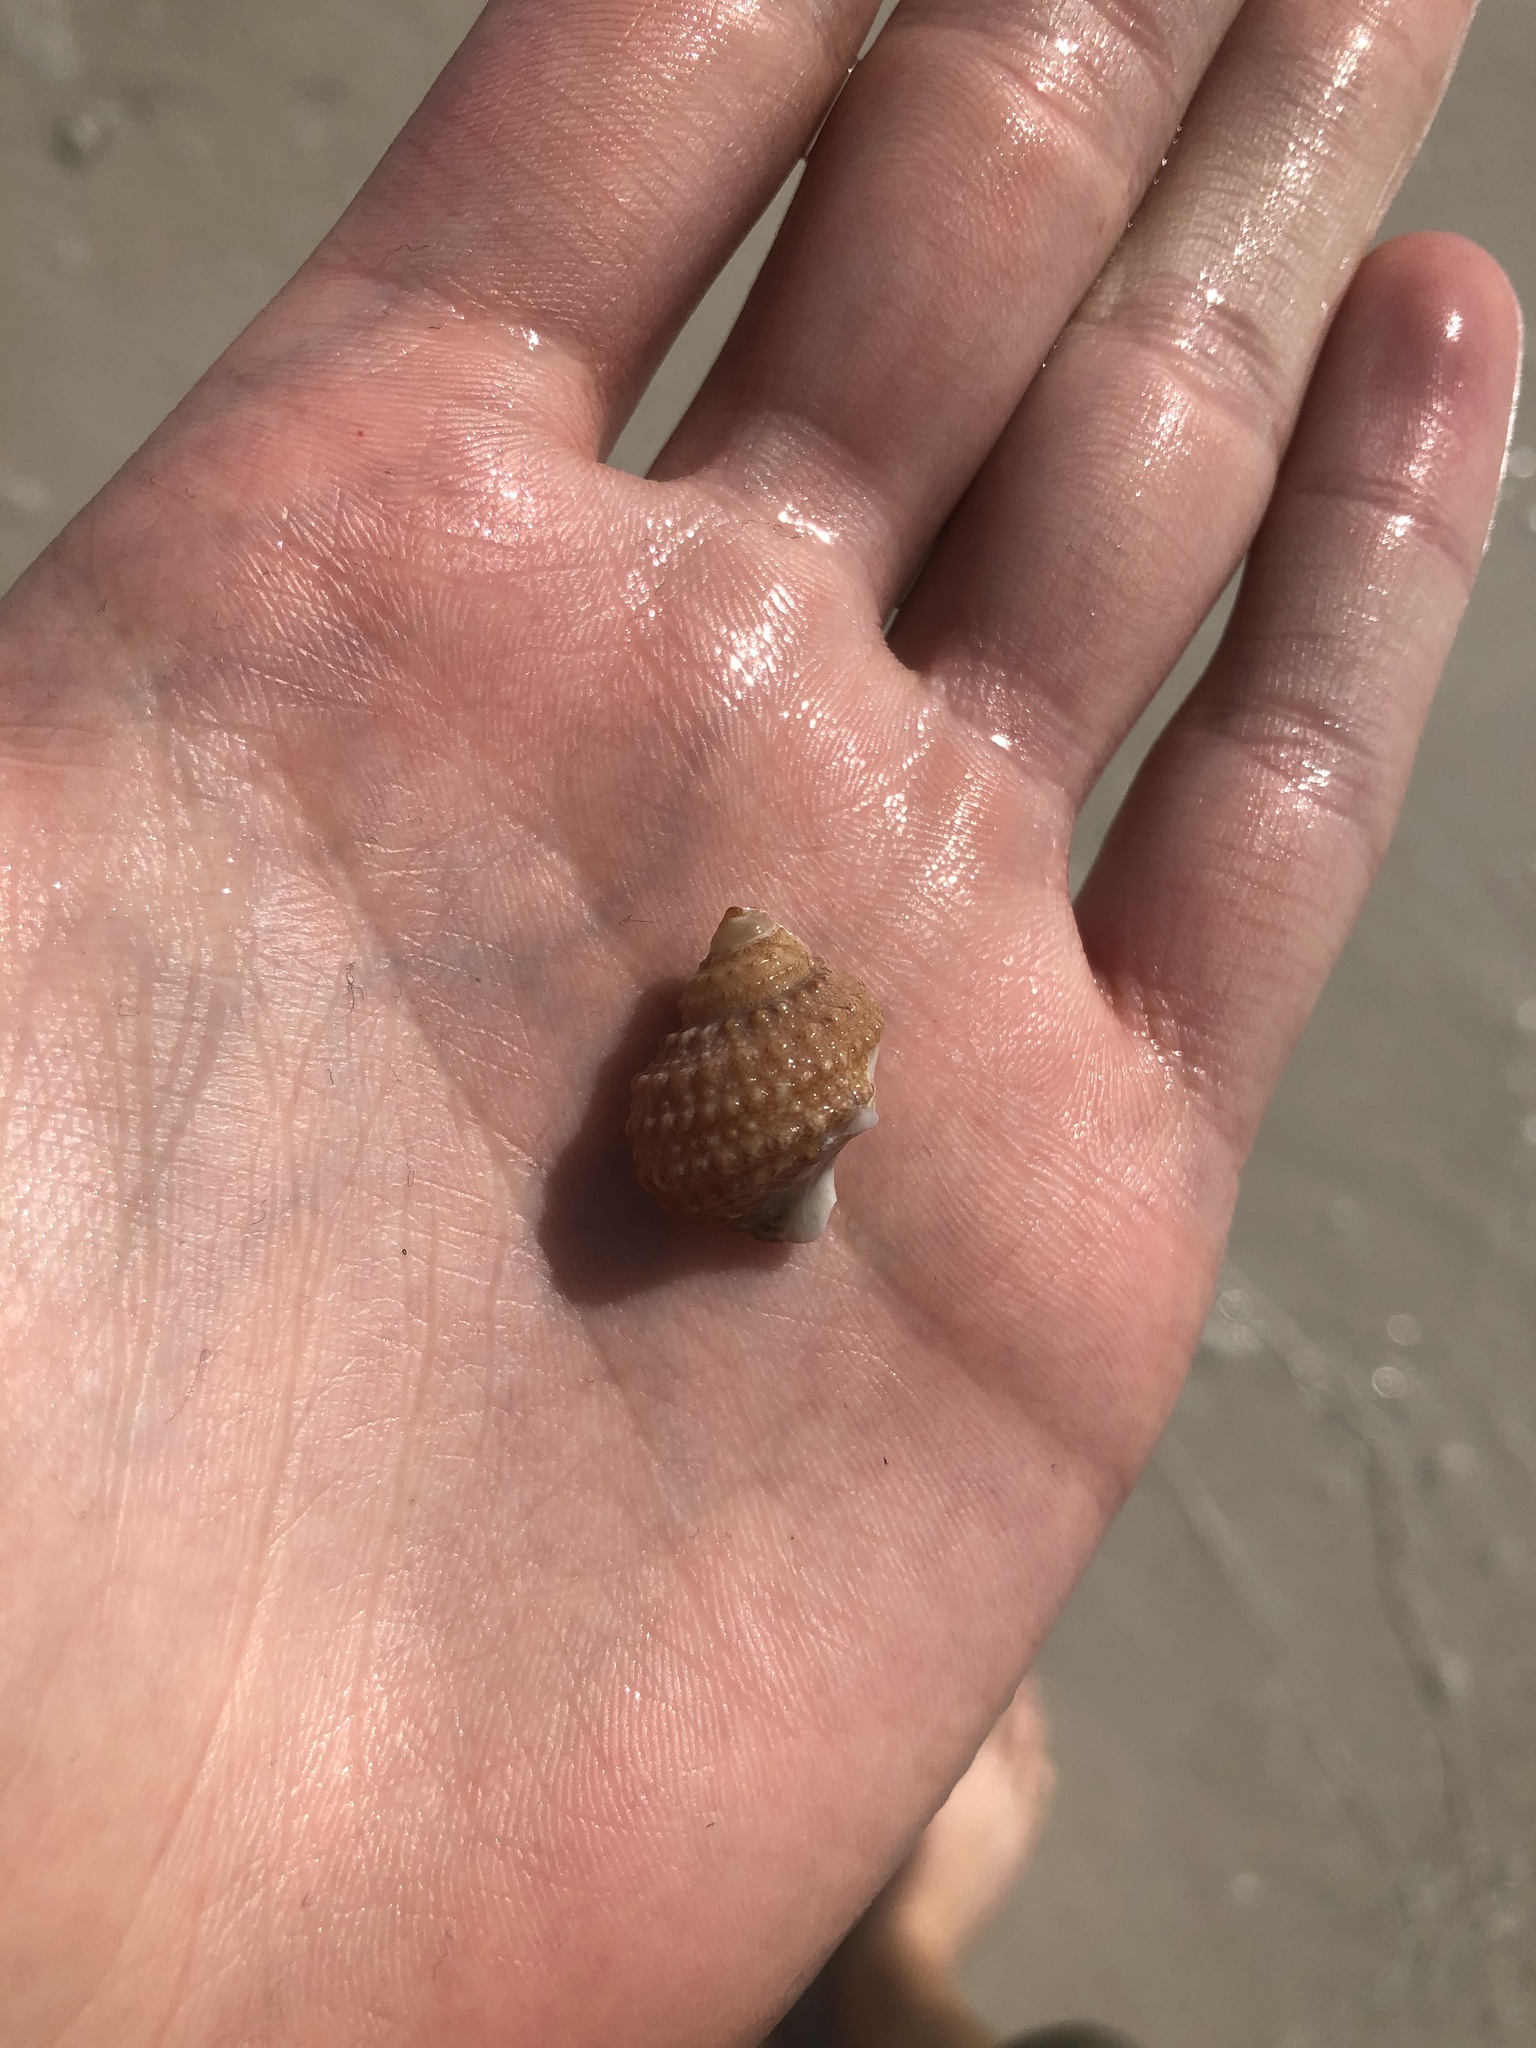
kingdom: Animalia
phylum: Mollusca
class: Gastropoda
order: Trochida
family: Turbinidae
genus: Turbo
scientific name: Turbo castanea
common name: Chestnut turban
